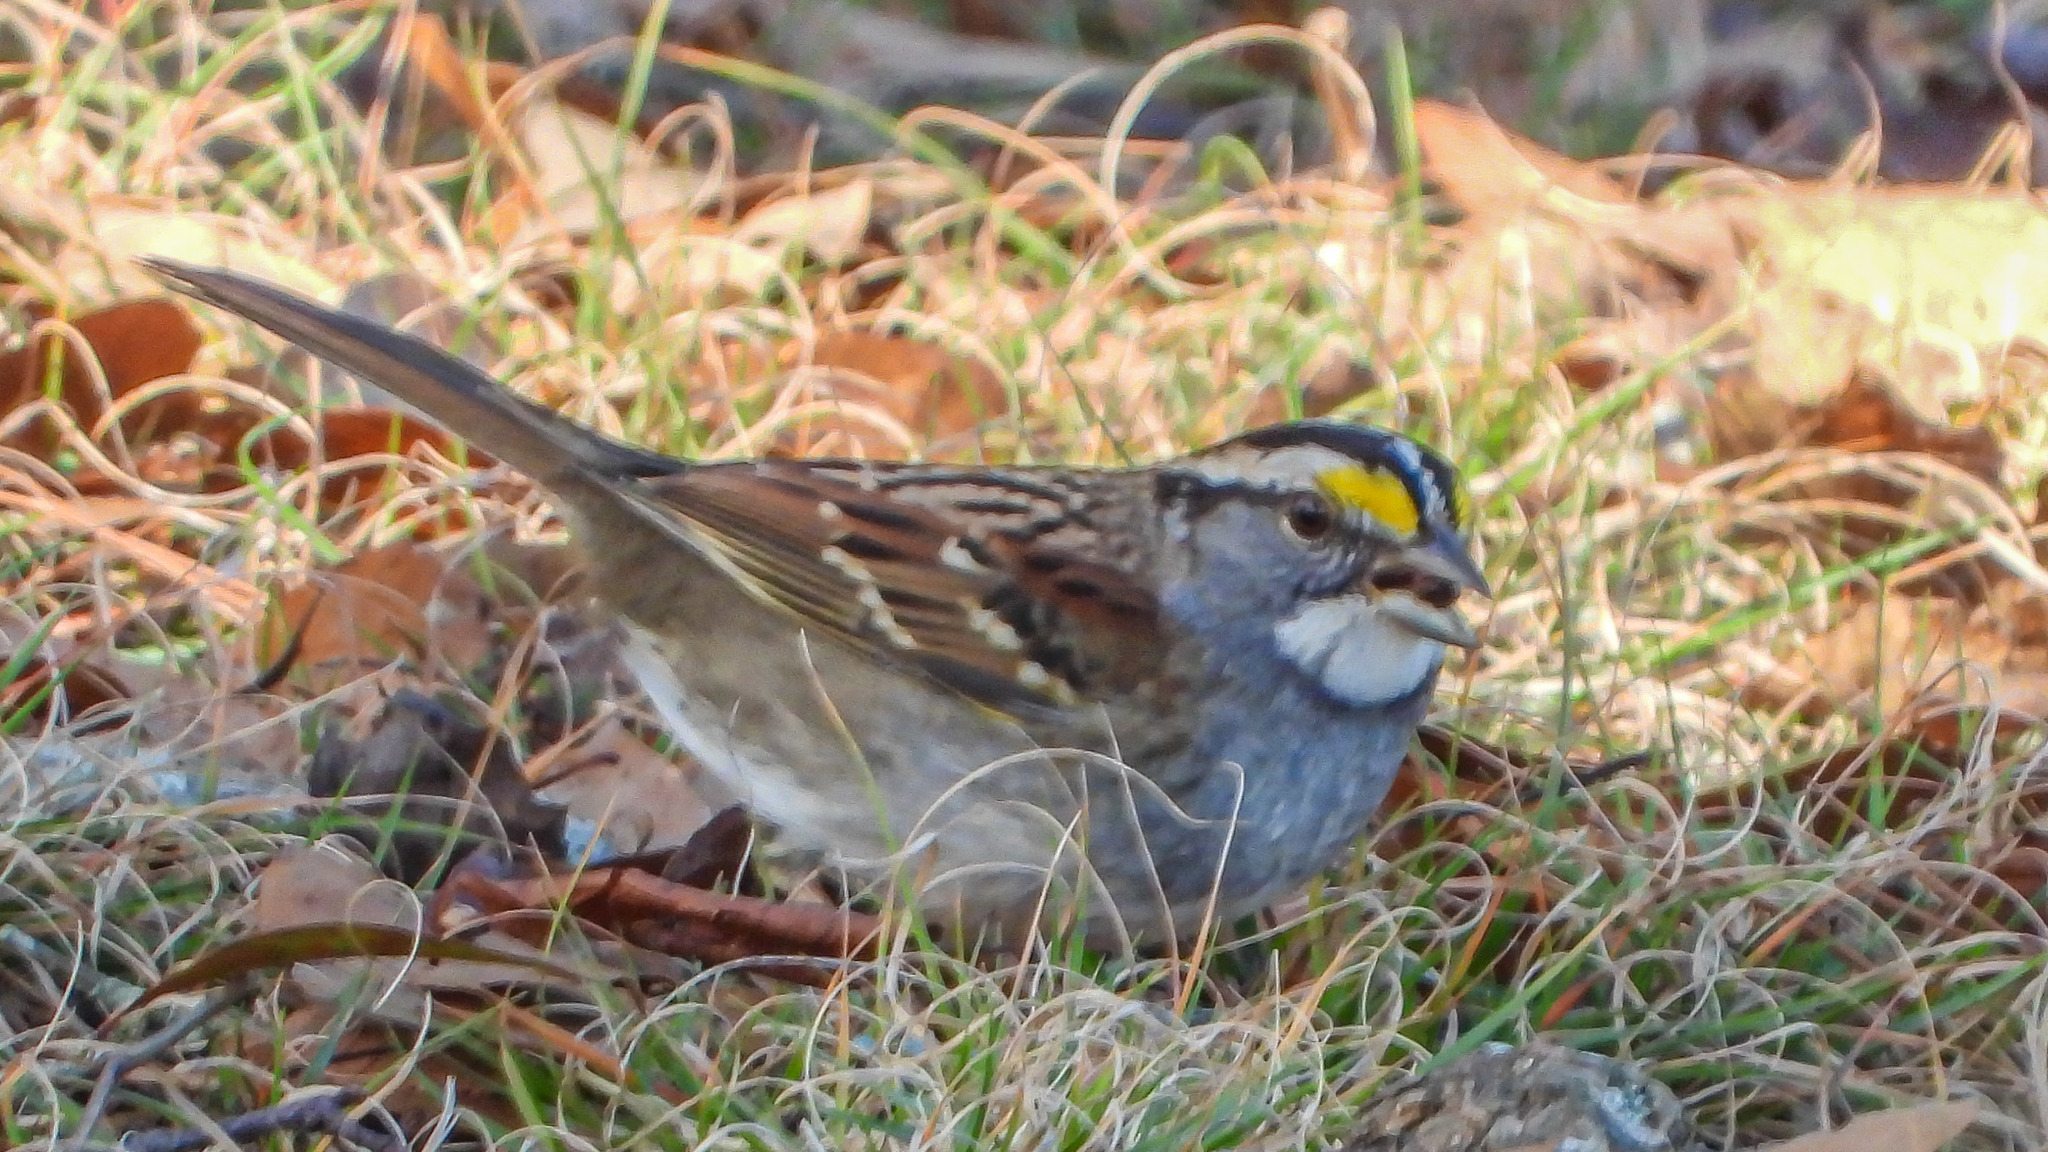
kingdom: Animalia
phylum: Chordata
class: Aves
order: Passeriformes
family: Passerellidae
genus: Zonotrichia
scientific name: Zonotrichia albicollis
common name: White-throated sparrow
